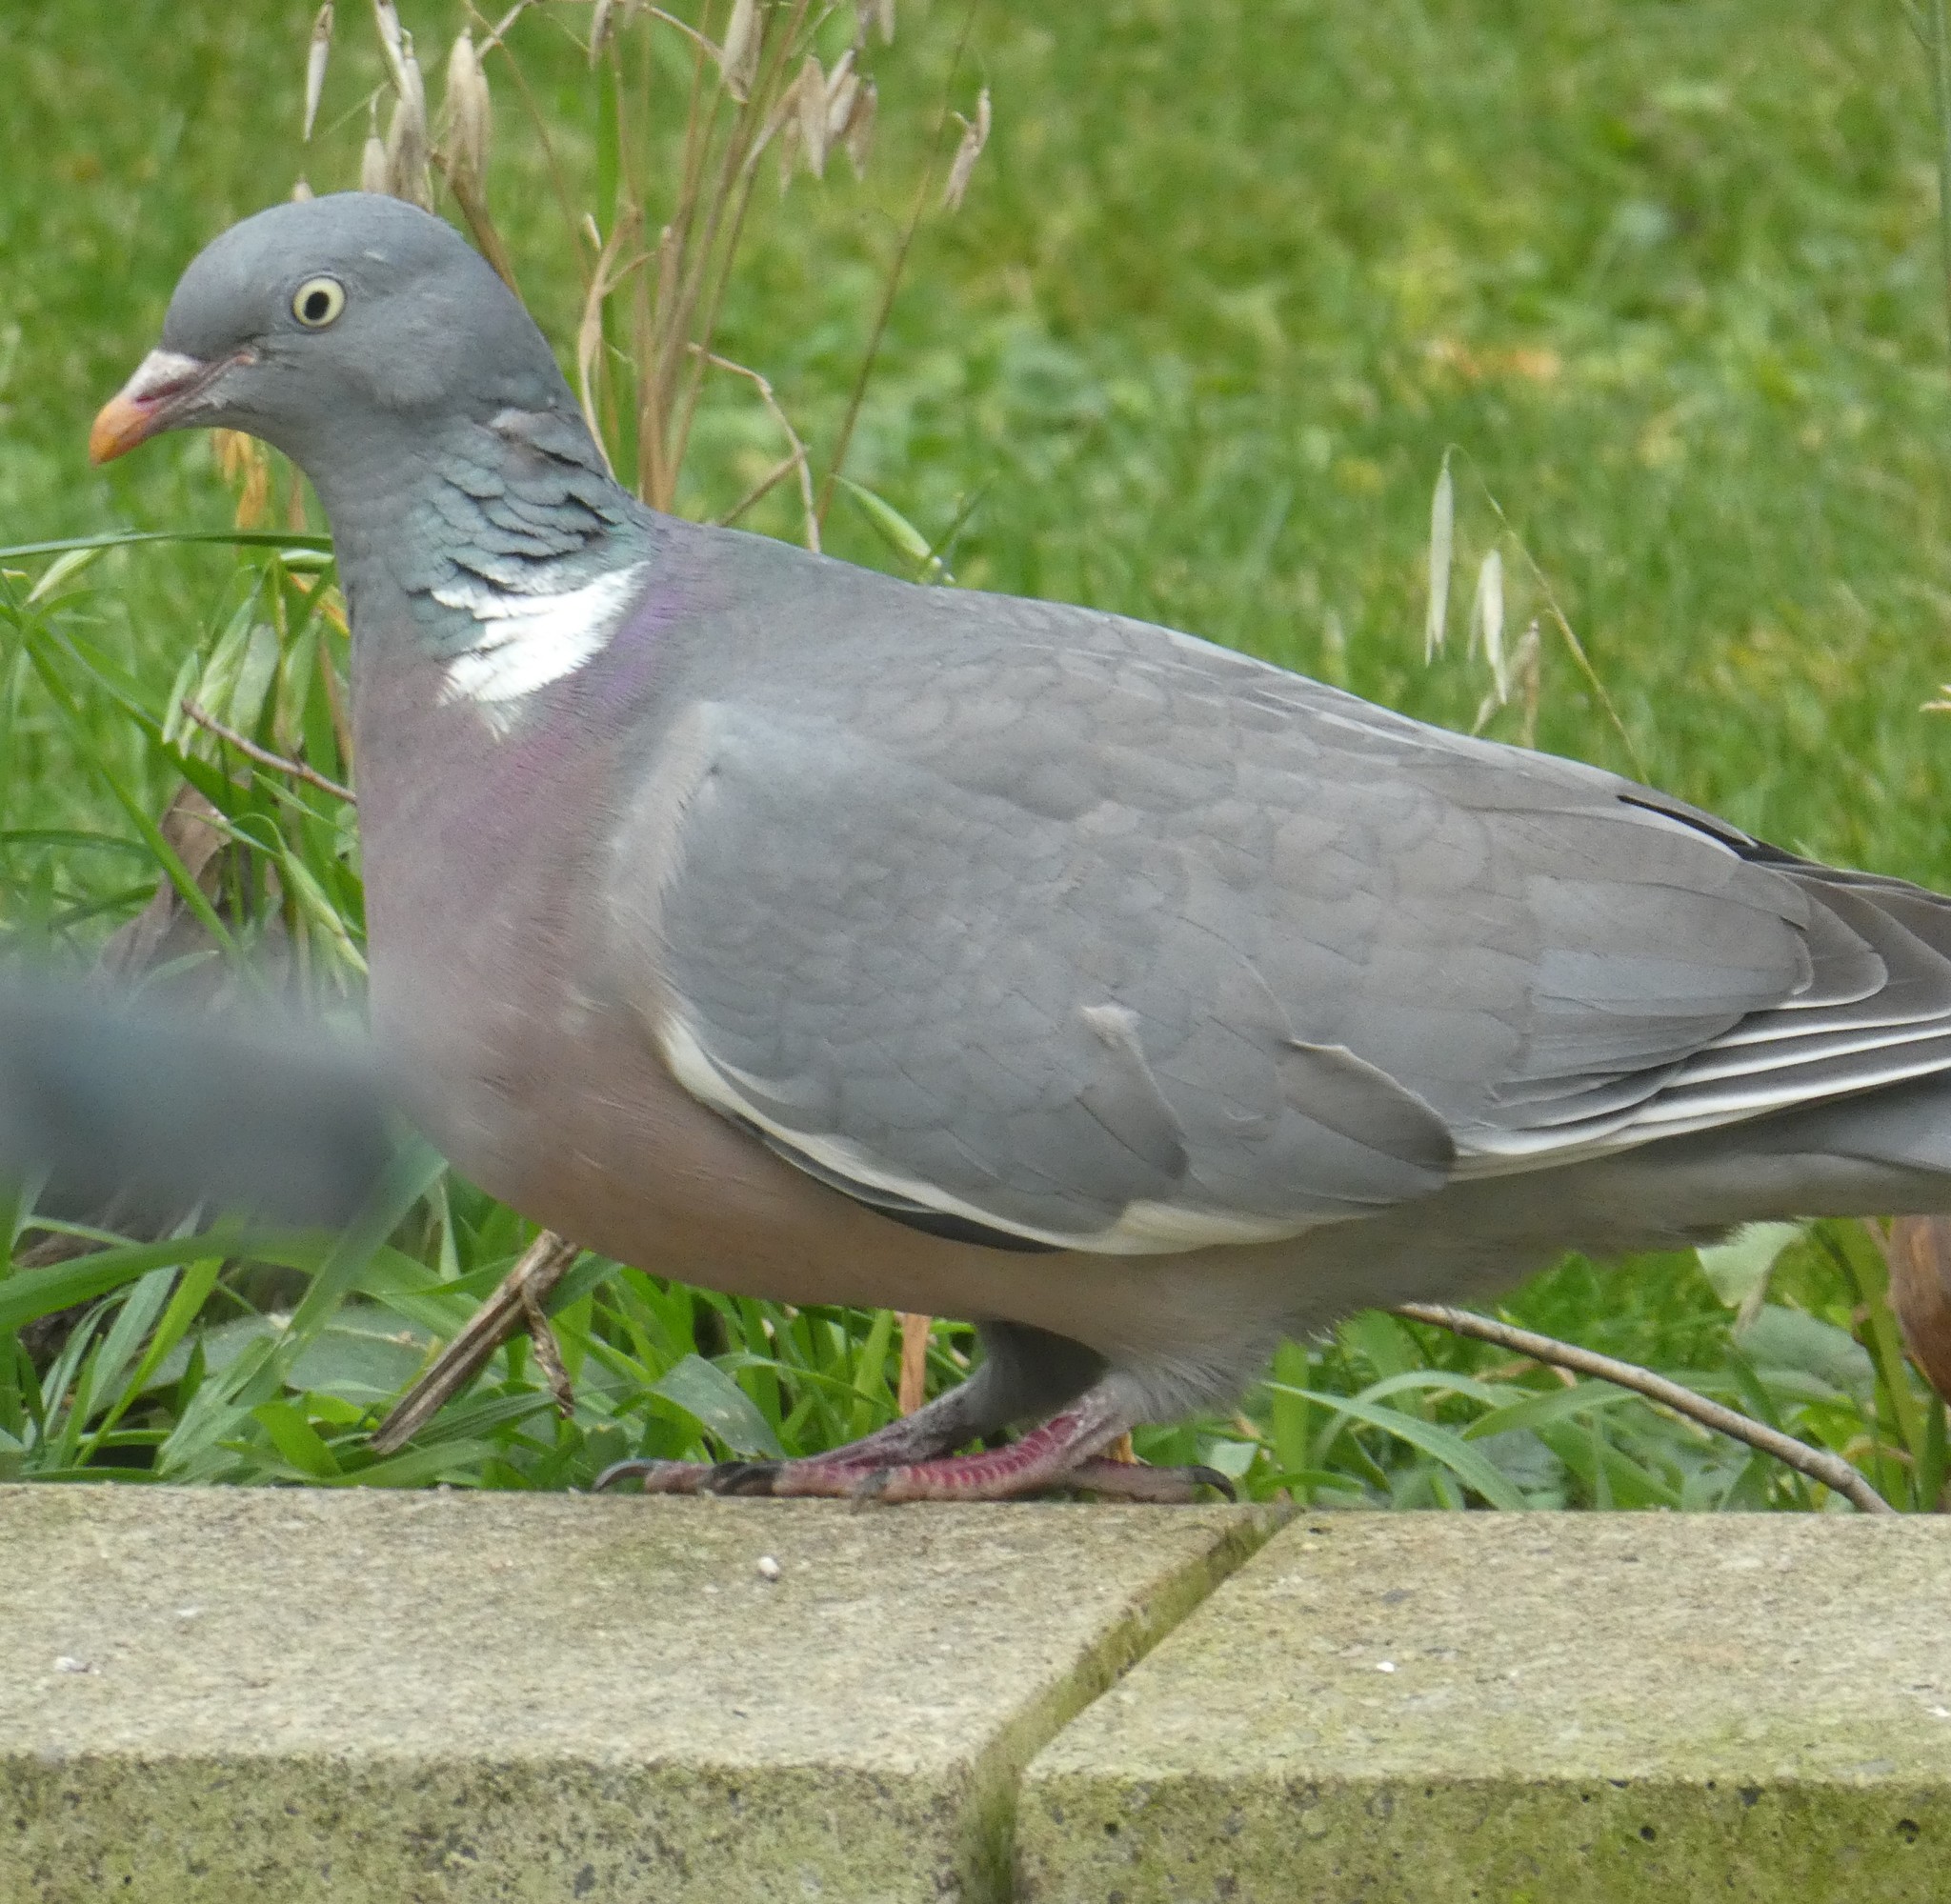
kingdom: Animalia
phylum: Chordata
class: Aves
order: Columbiformes
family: Columbidae
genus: Columba
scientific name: Columba palumbus
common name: Common wood pigeon
